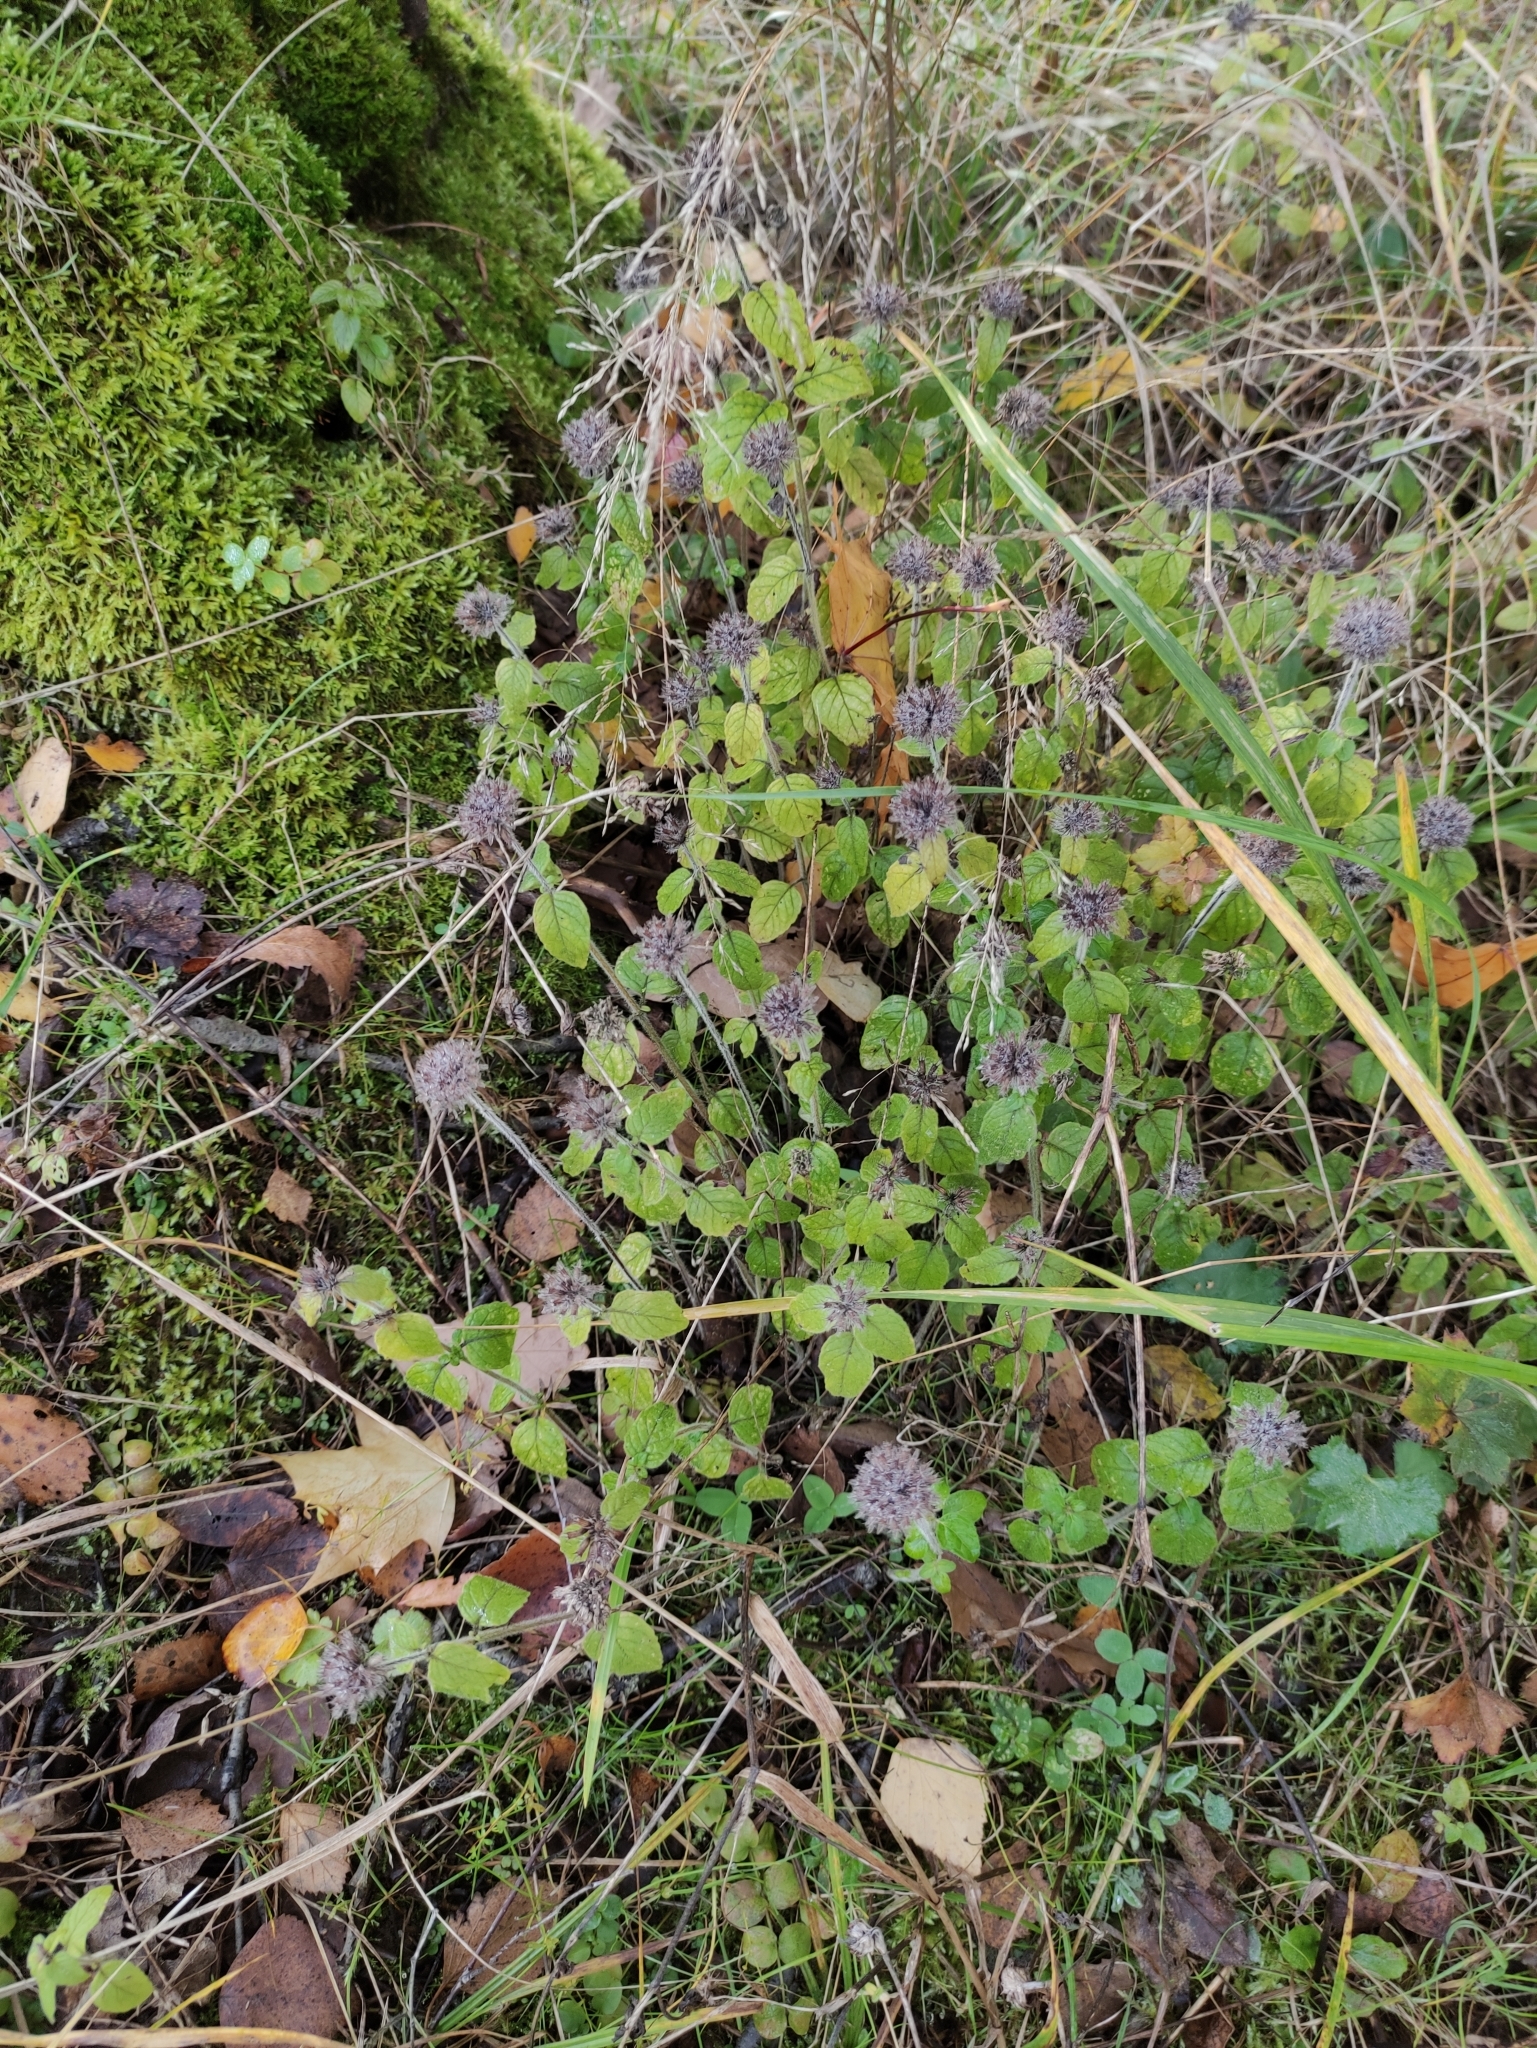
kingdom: Plantae
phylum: Tracheophyta
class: Magnoliopsida
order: Lamiales
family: Lamiaceae
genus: Clinopodium
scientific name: Clinopodium vulgare
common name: Wild basil
